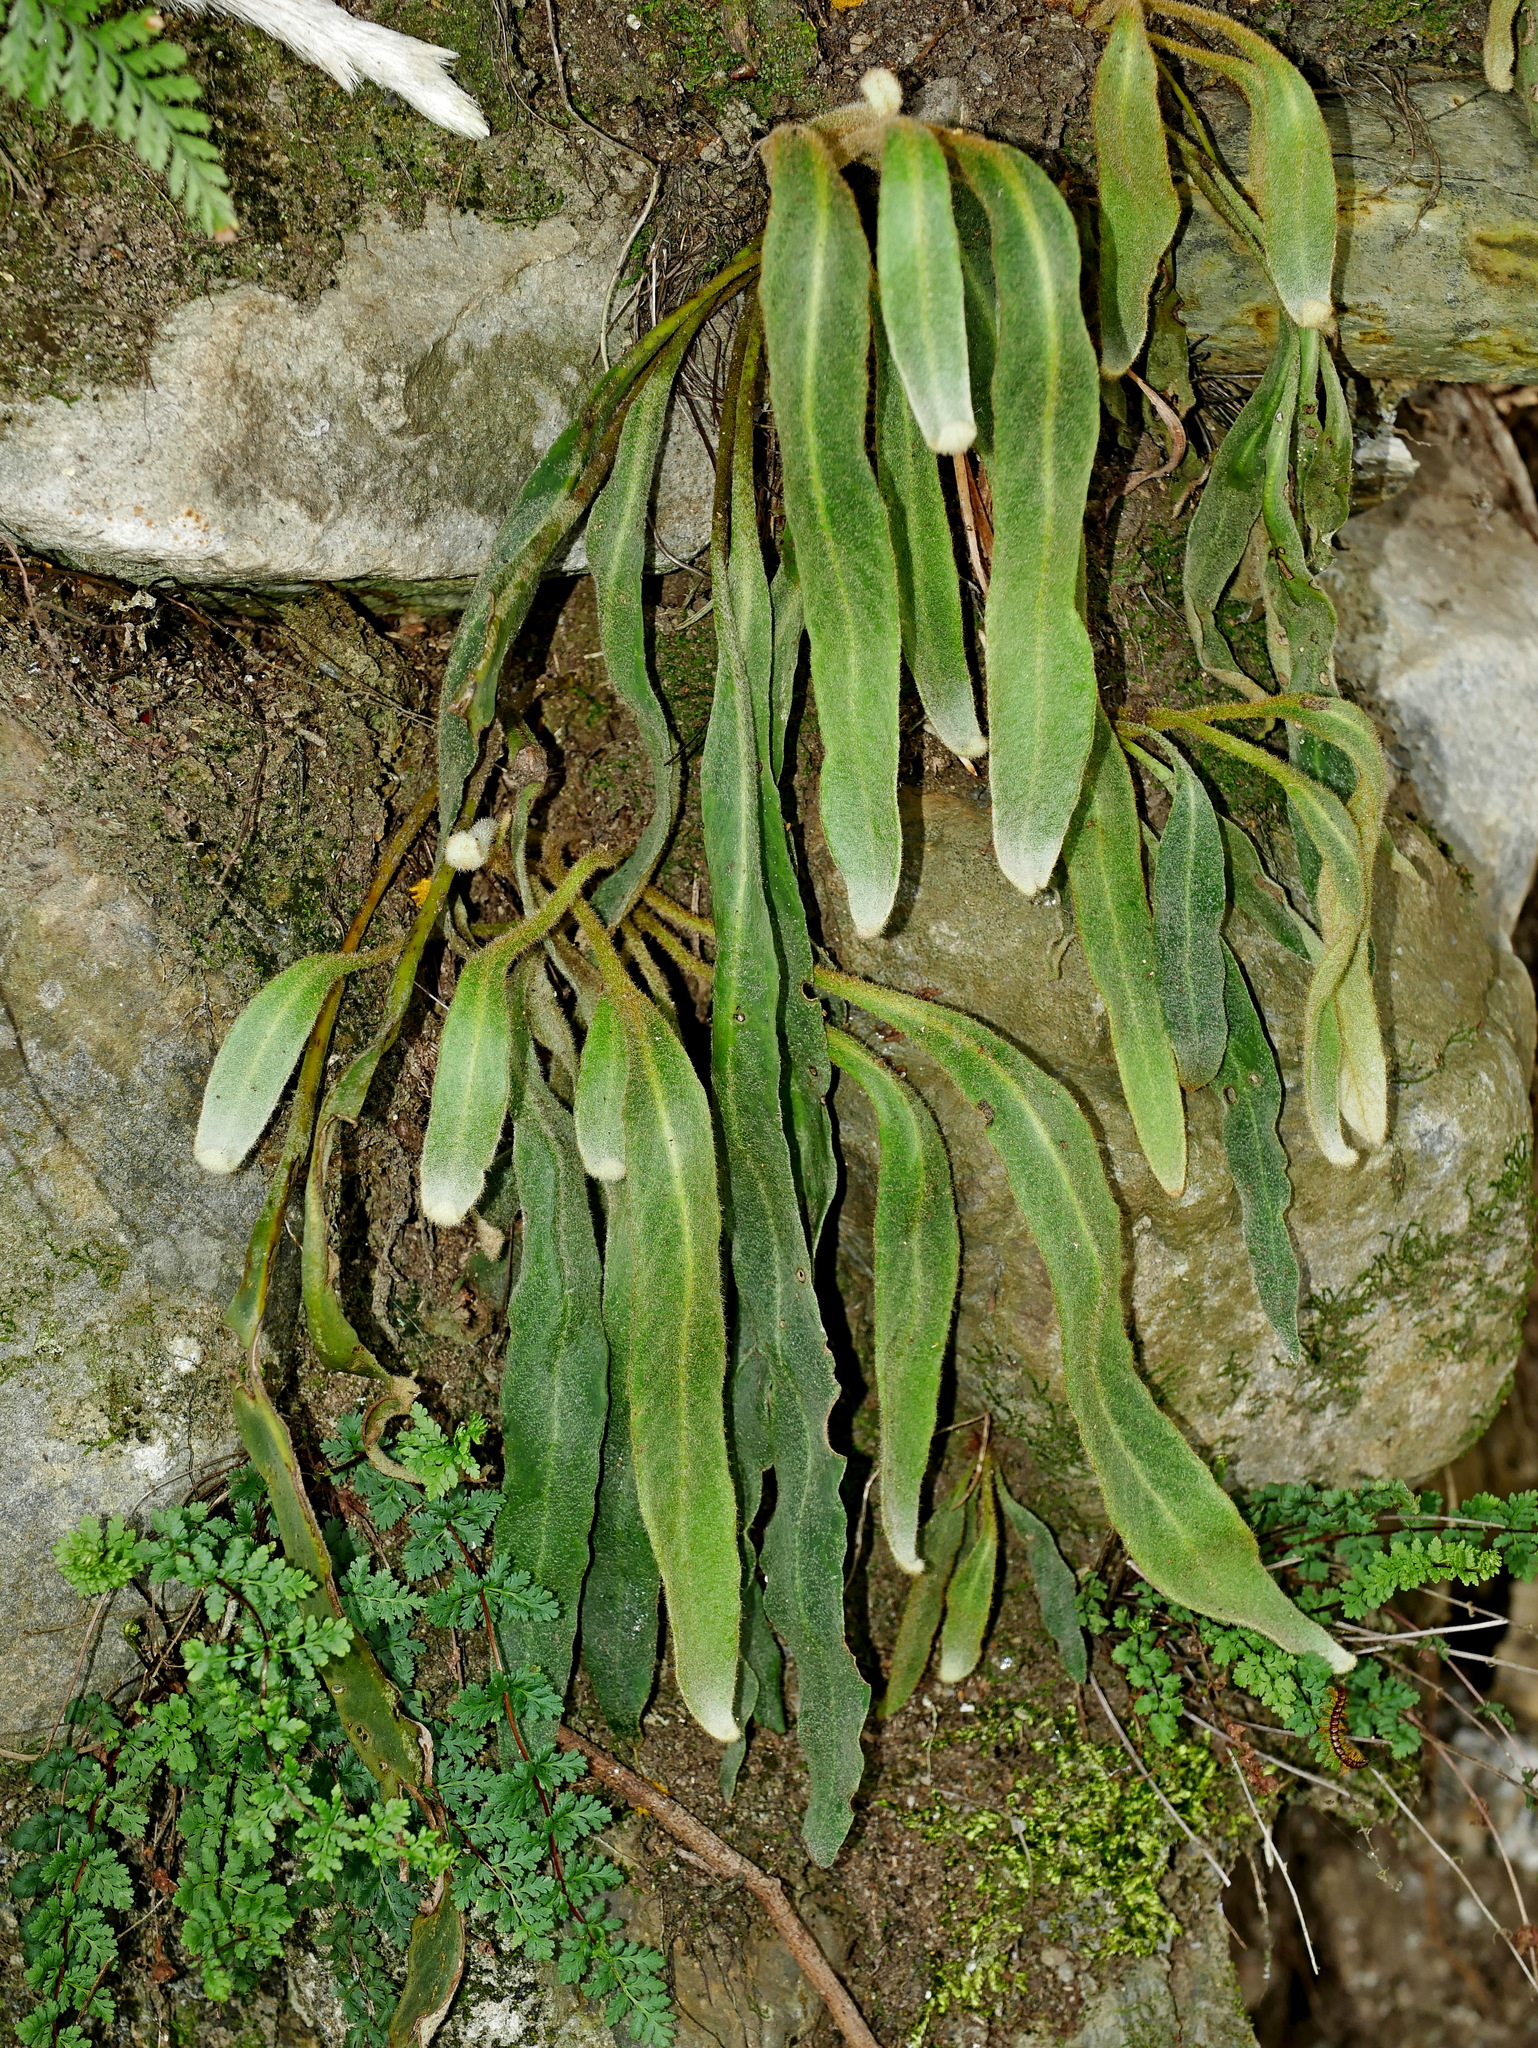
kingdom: Plantae
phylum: Tracheophyta
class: Polypodiopsida
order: Polypodiales
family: Polypodiaceae
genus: Pyrrosia
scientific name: Pyrrosia porosa
